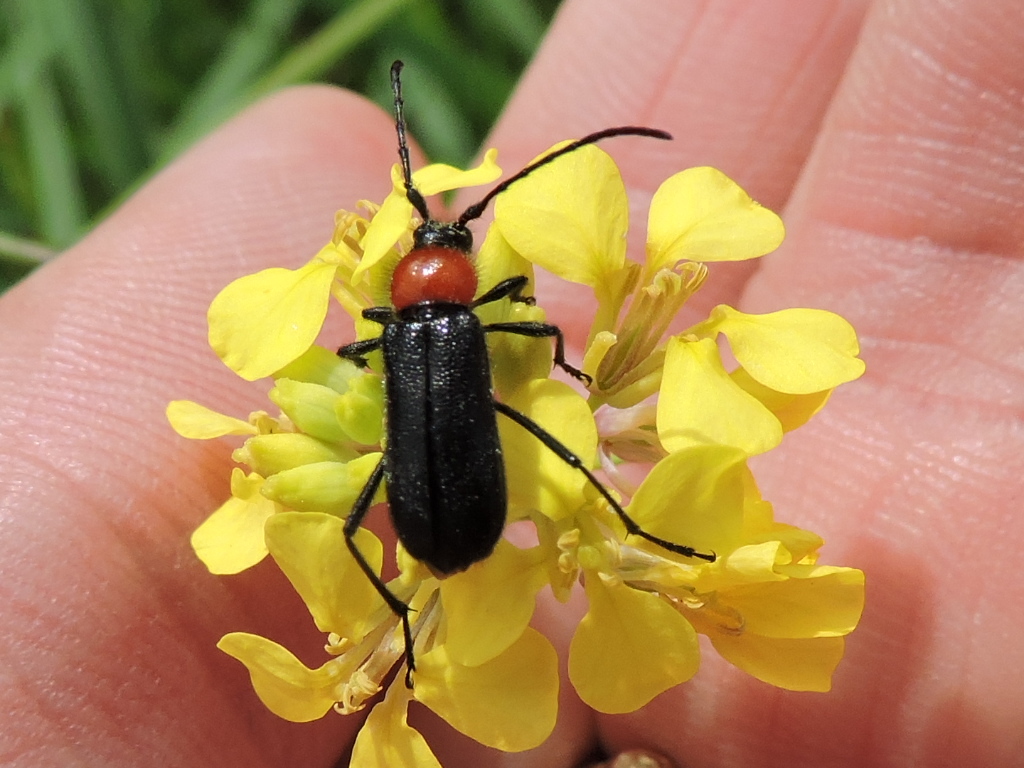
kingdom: Animalia
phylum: Arthropoda
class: Insecta
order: Coleoptera
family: Cerambycidae
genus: Batyle
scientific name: Batyle ignicollis
